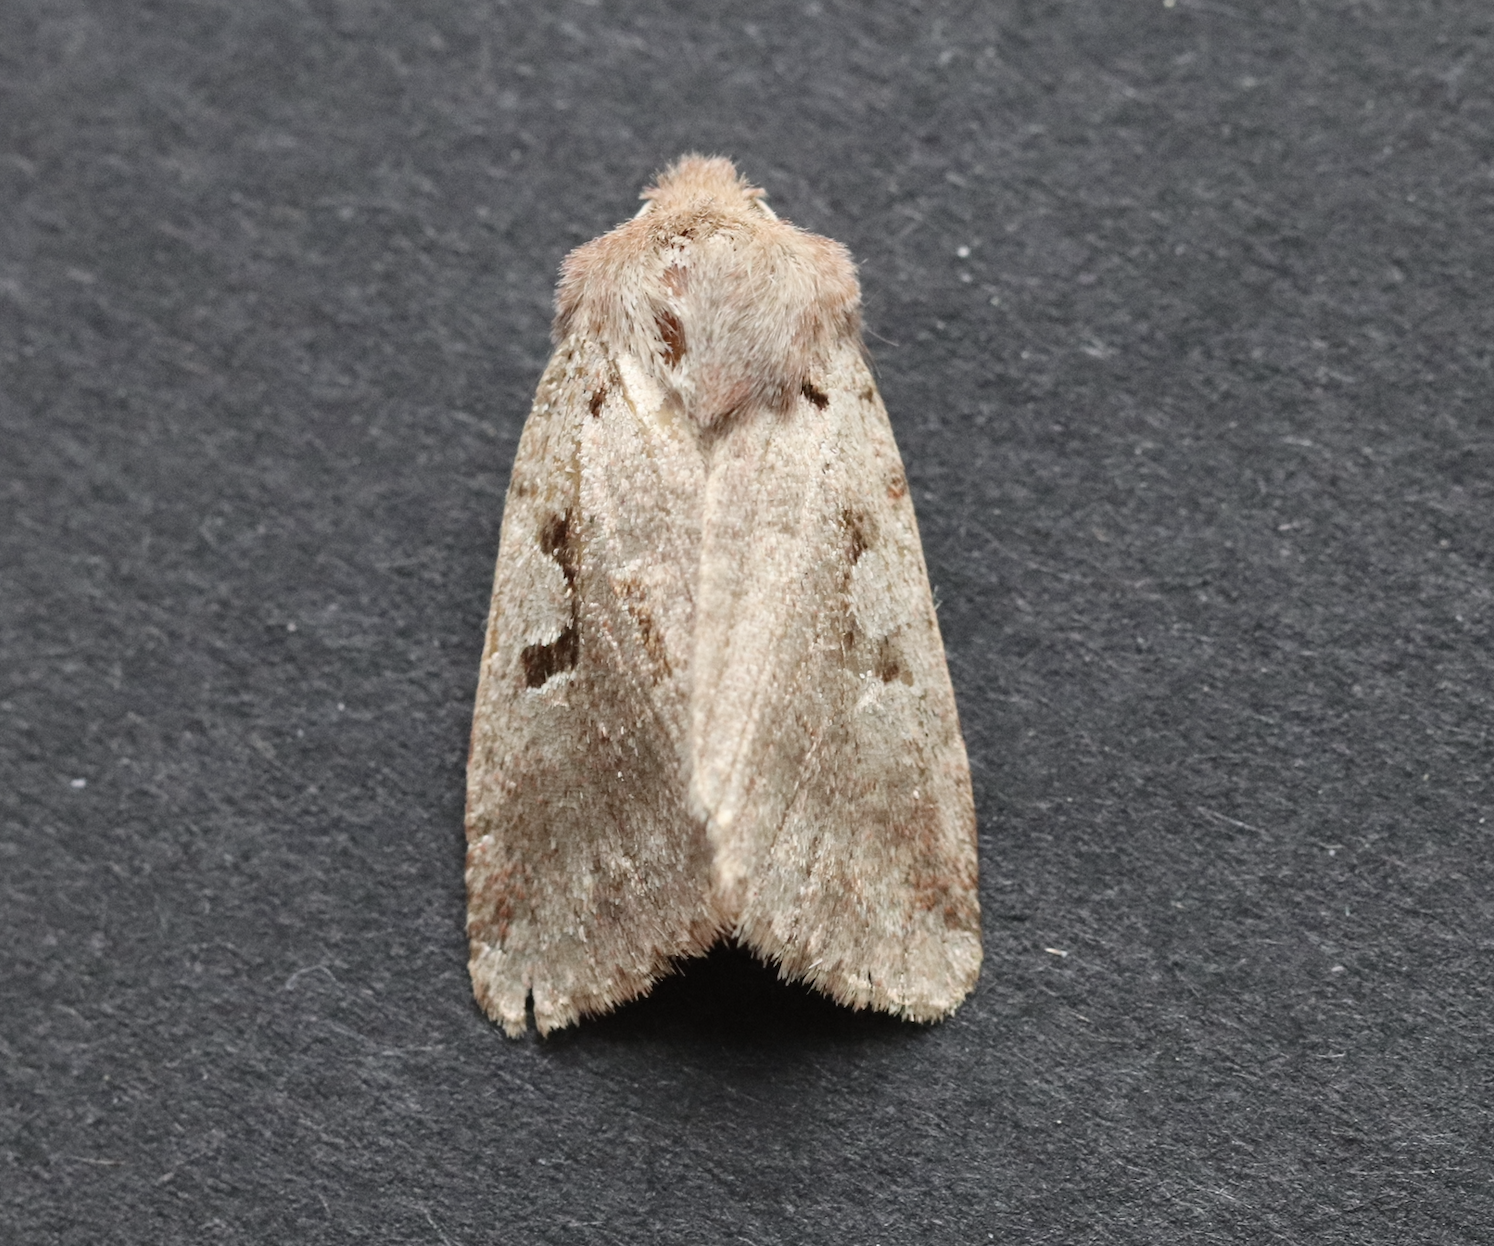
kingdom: Animalia
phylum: Arthropoda
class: Insecta
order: Lepidoptera
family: Noctuidae
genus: Orthosia
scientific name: Orthosia gothica
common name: Hebrew character
